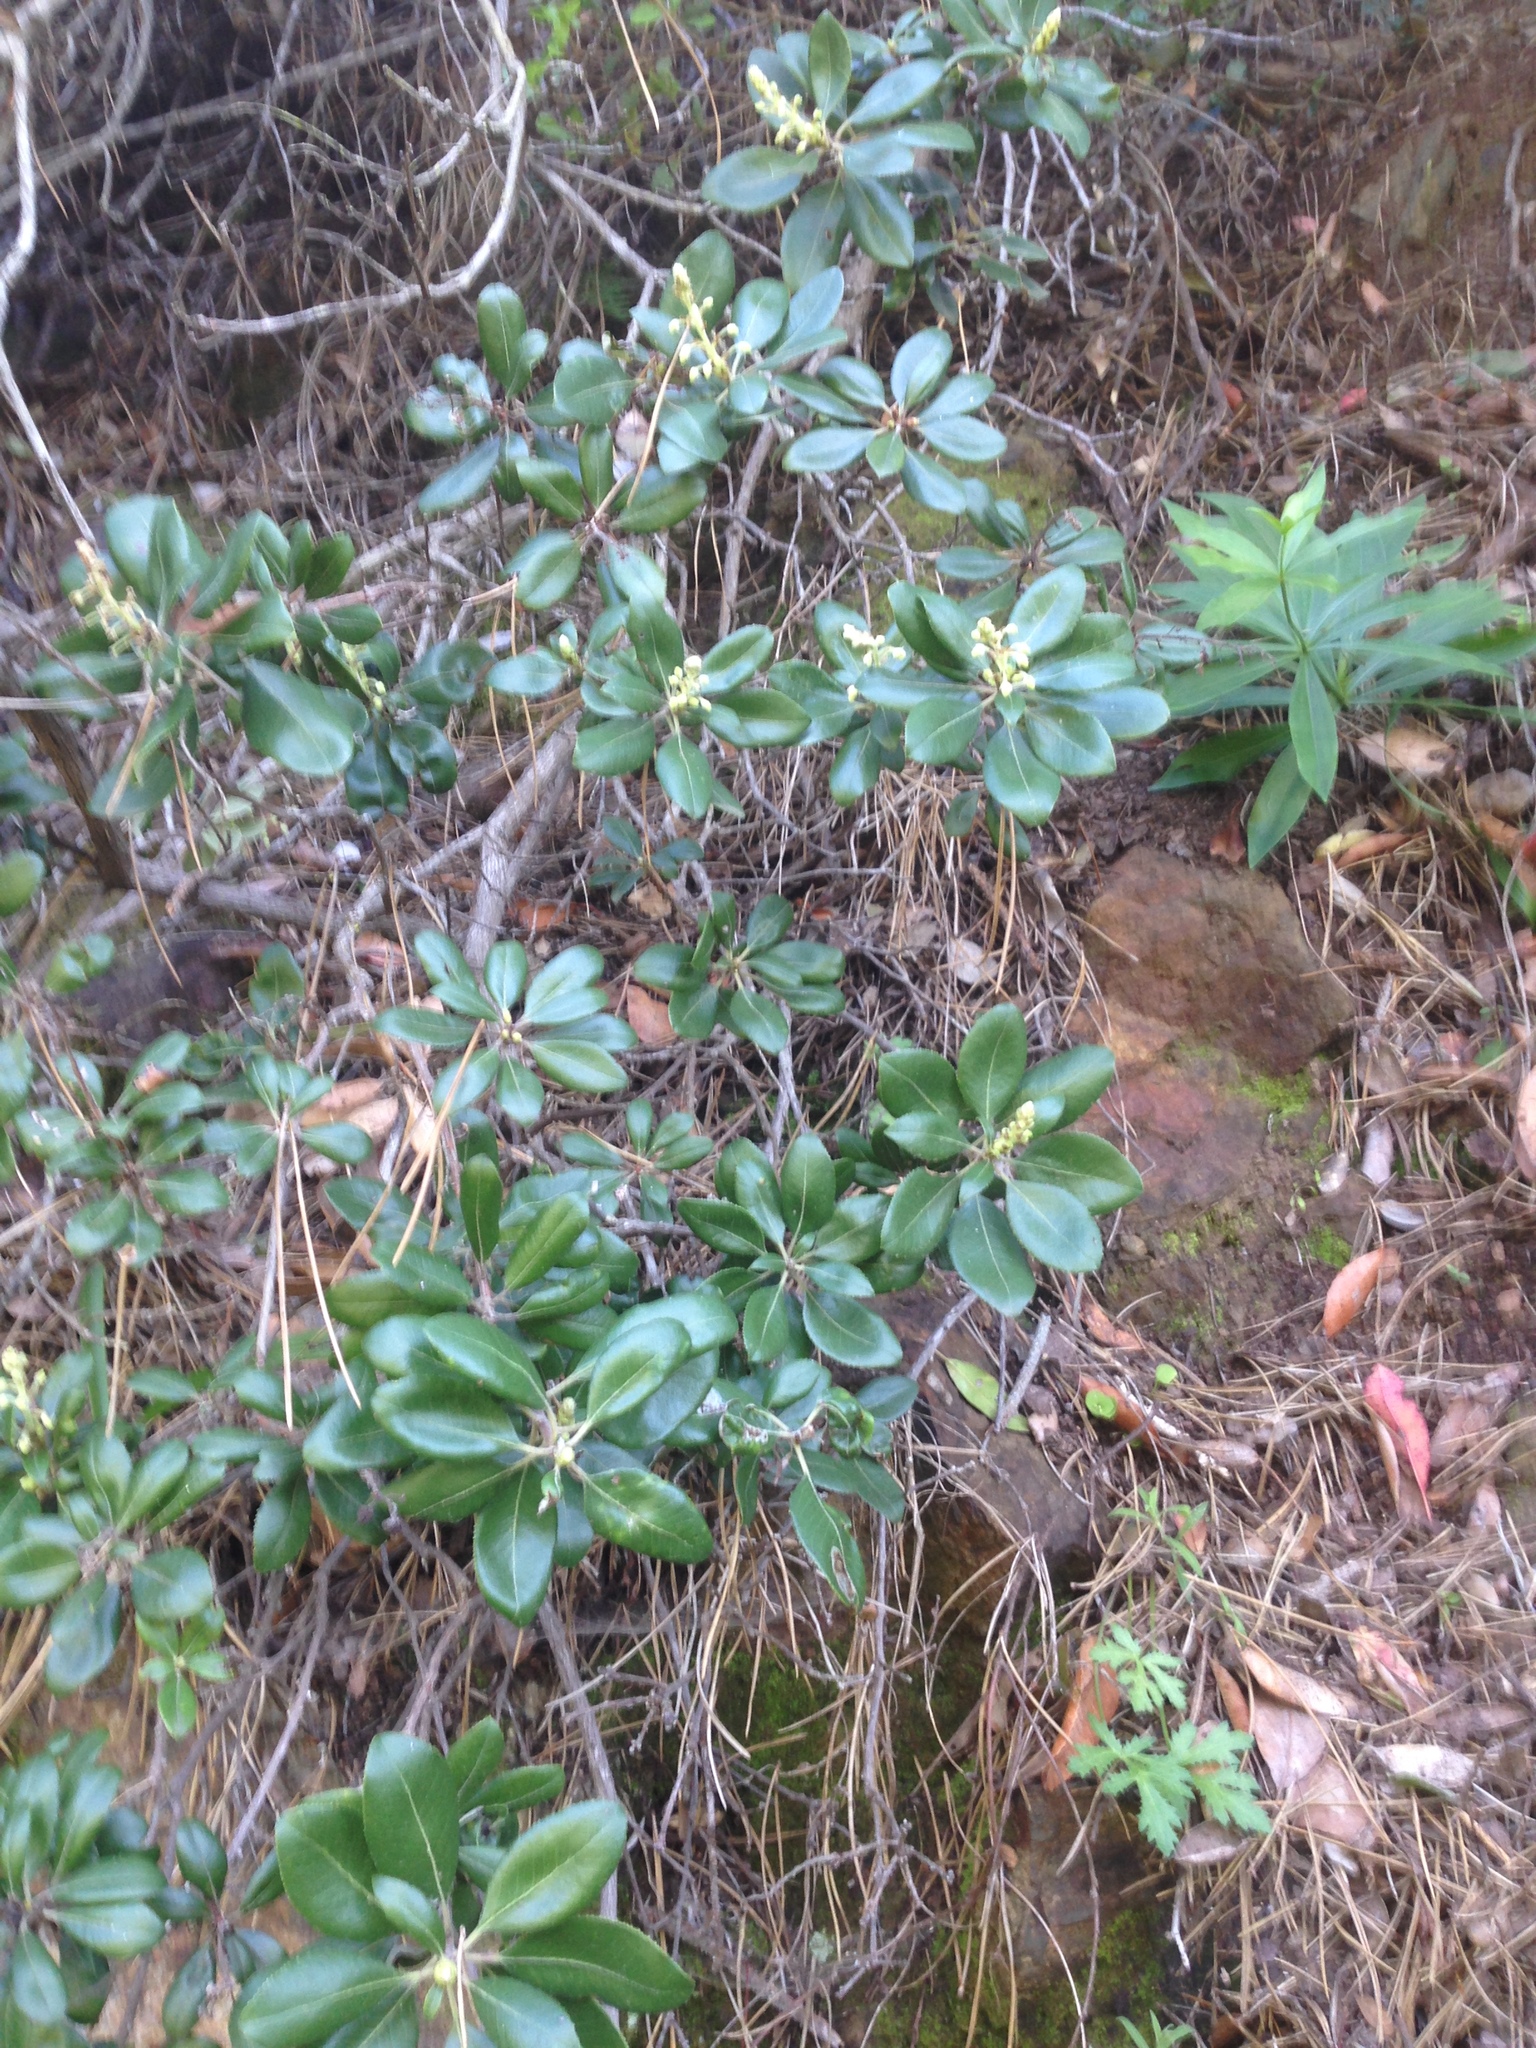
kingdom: Plantae
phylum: Tracheophyta
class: Magnoliopsida
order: Ericales
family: Ericaceae
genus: Comarostaphylis
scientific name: Comarostaphylis diversifolia
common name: Summer-holly
